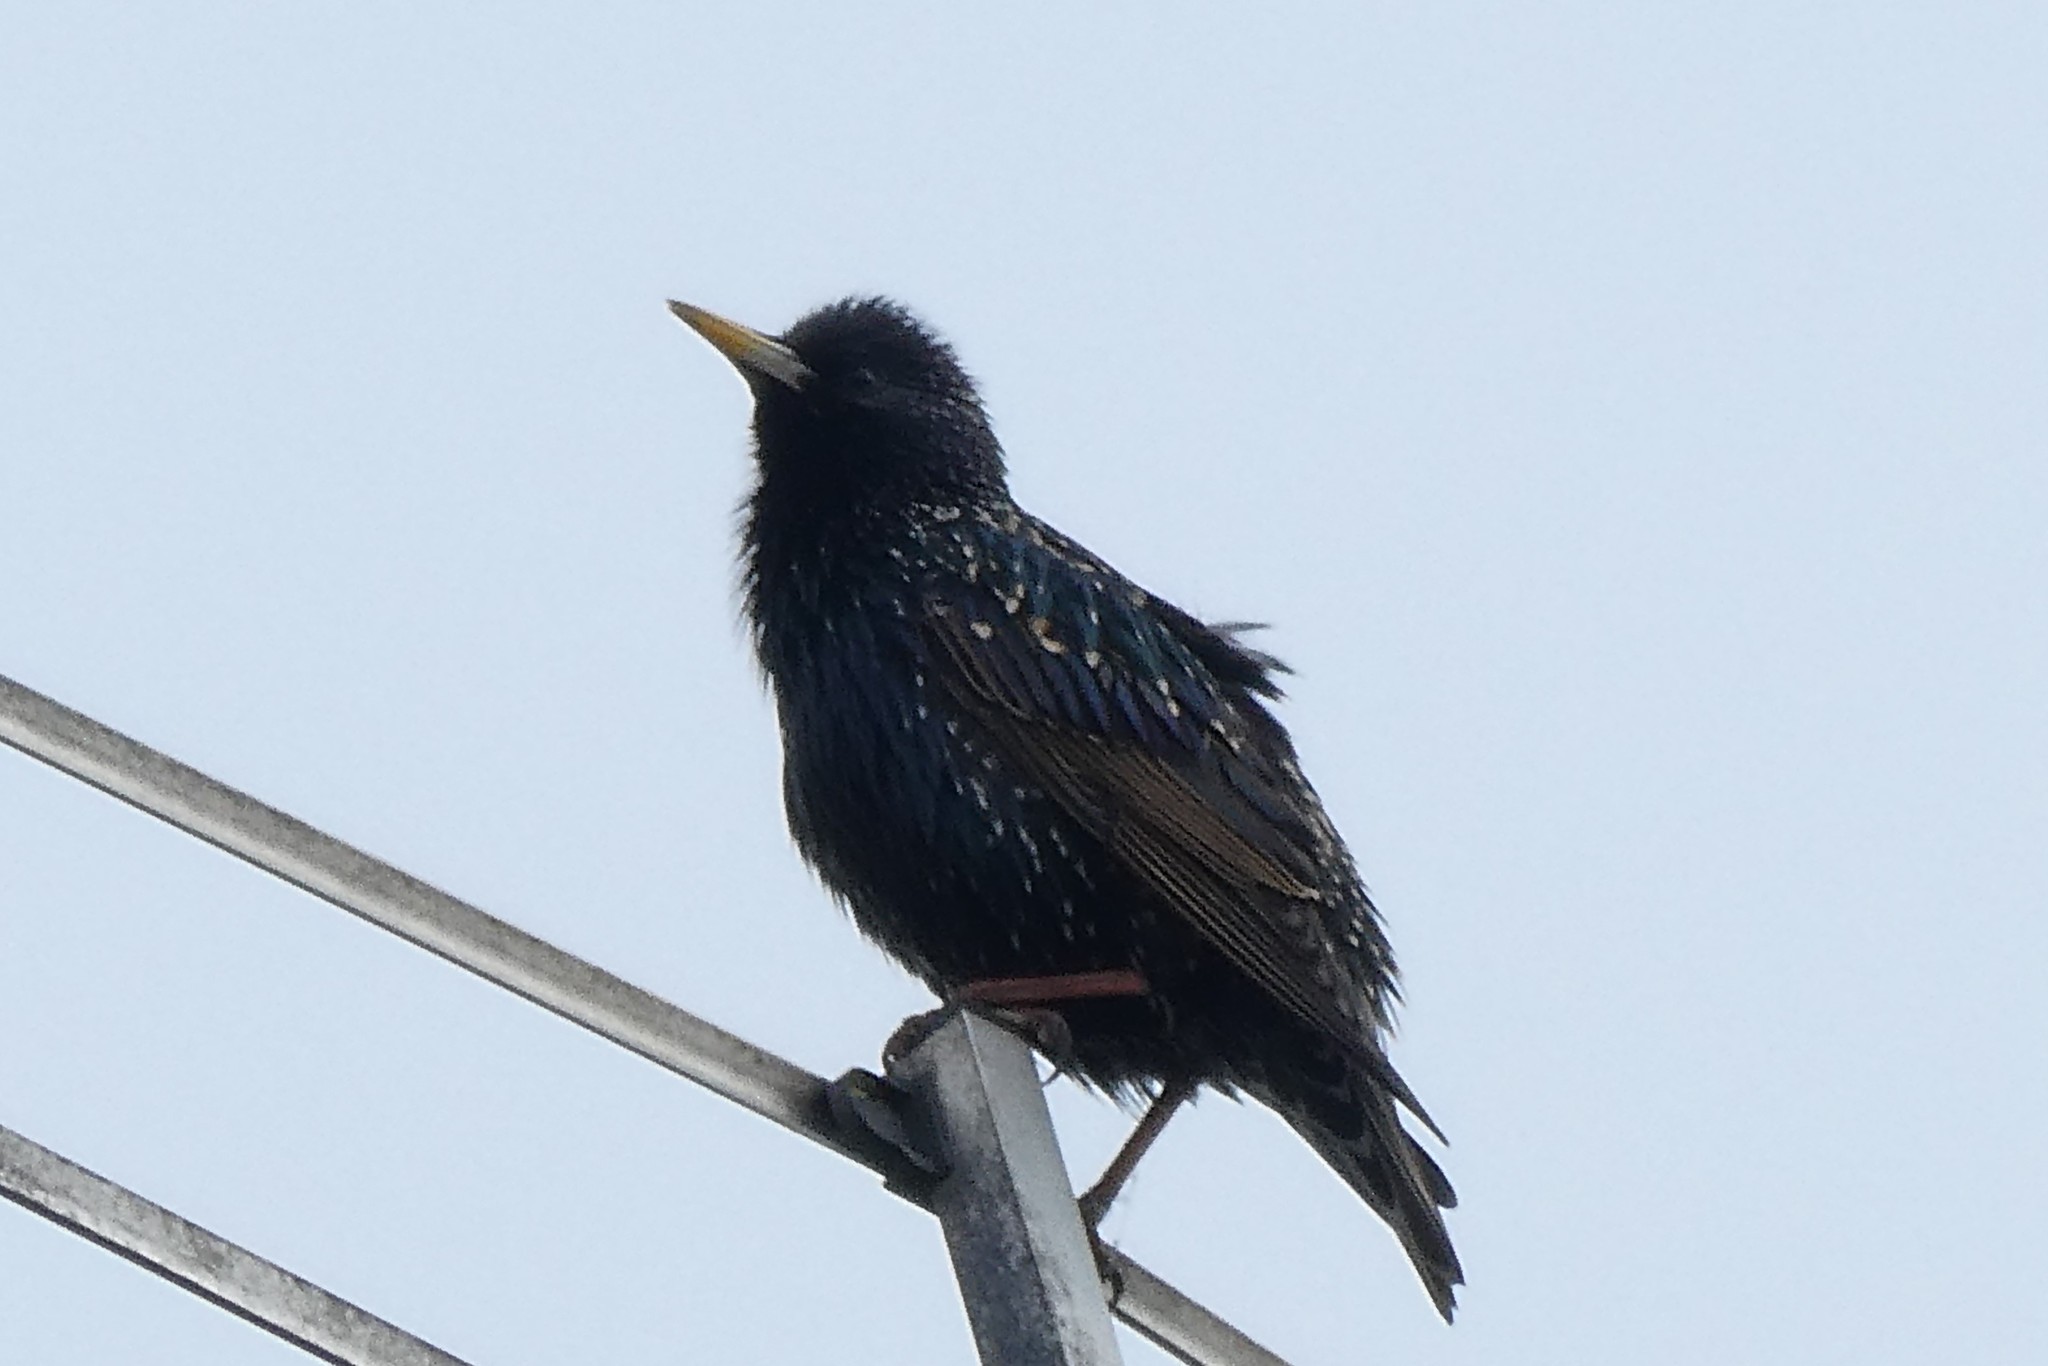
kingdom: Animalia
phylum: Chordata
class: Aves
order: Passeriformes
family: Sturnidae
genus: Sturnus
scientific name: Sturnus vulgaris
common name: Common starling
